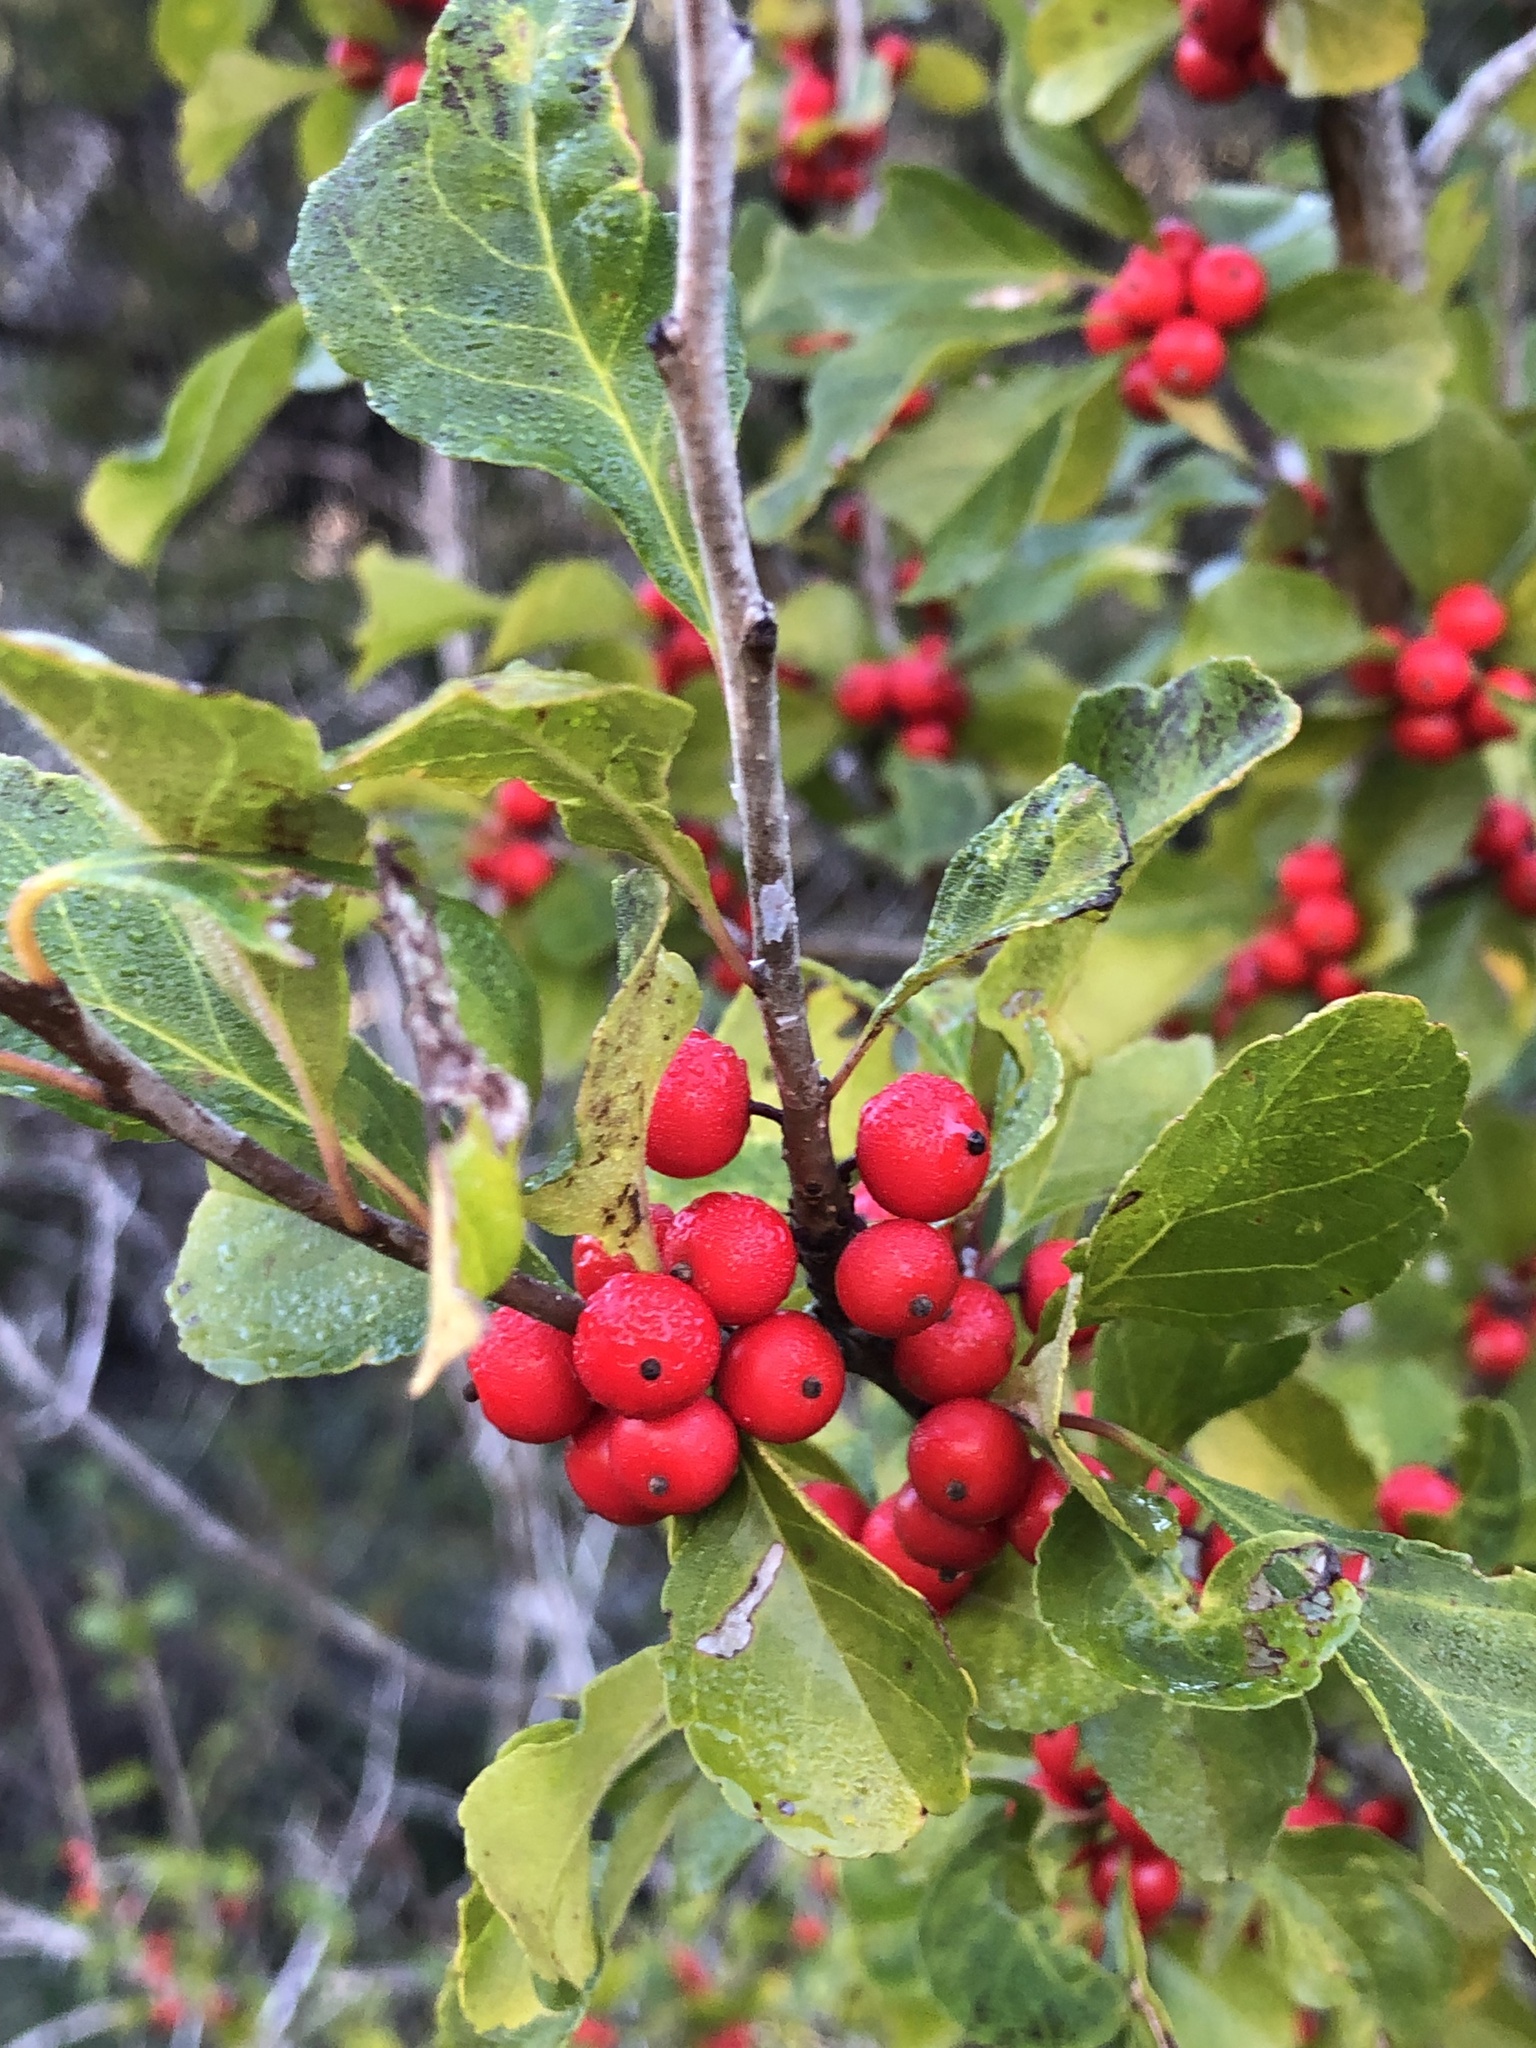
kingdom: Plantae
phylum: Tracheophyta
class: Magnoliopsida
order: Aquifoliales
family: Aquifoliaceae
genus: Ilex
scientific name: Ilex decidua
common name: Possum-haw
